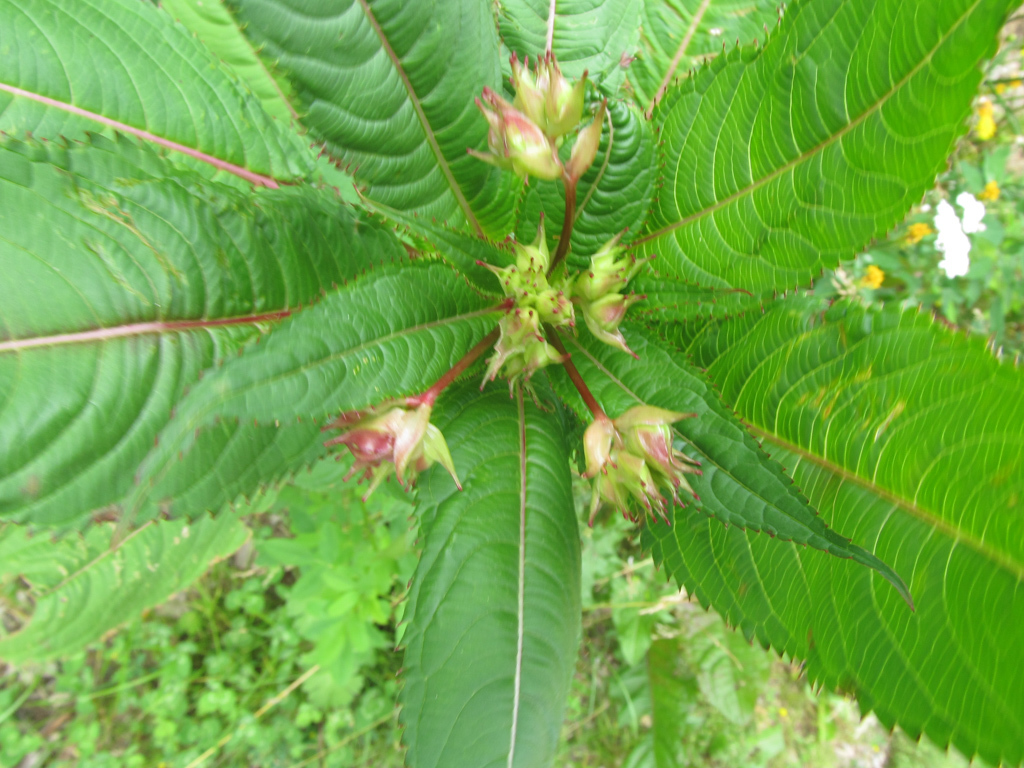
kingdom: Plantae
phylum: Tracheophyta
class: Magnoliopsida
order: Ericales
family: Balsaminaceae
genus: Impatiens
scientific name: Impatiens glandulifera
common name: Himalayan balsam
